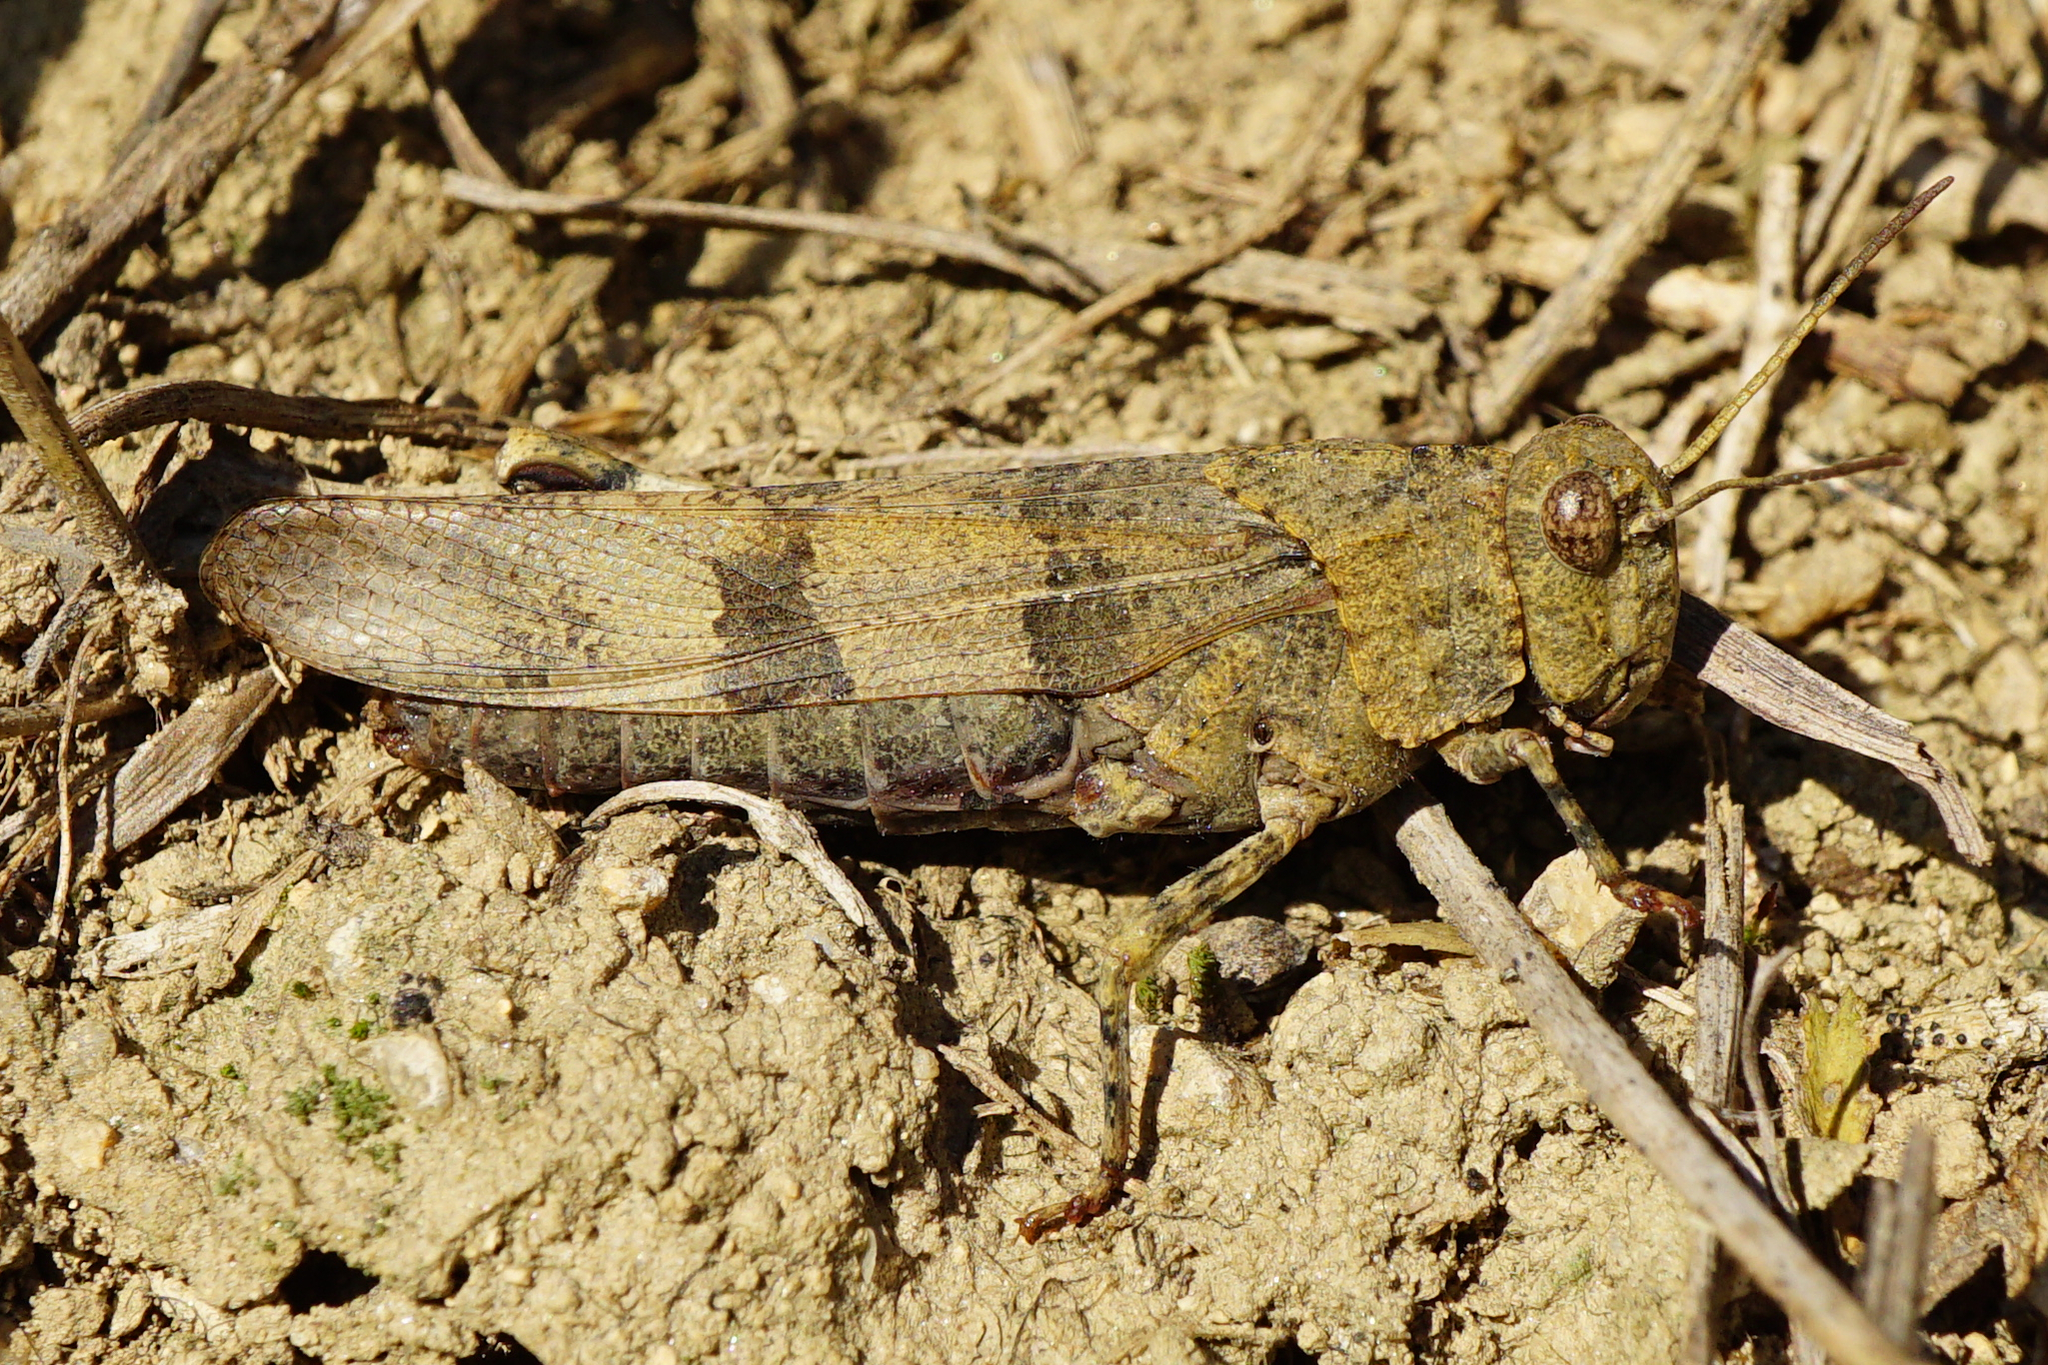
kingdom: Animalia
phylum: Arthropoda
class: Insecta
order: Orthoptera
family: Acrididae
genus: Oedipoda
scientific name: Oedipoda caerulescens
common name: Blue-winged grasshopper
